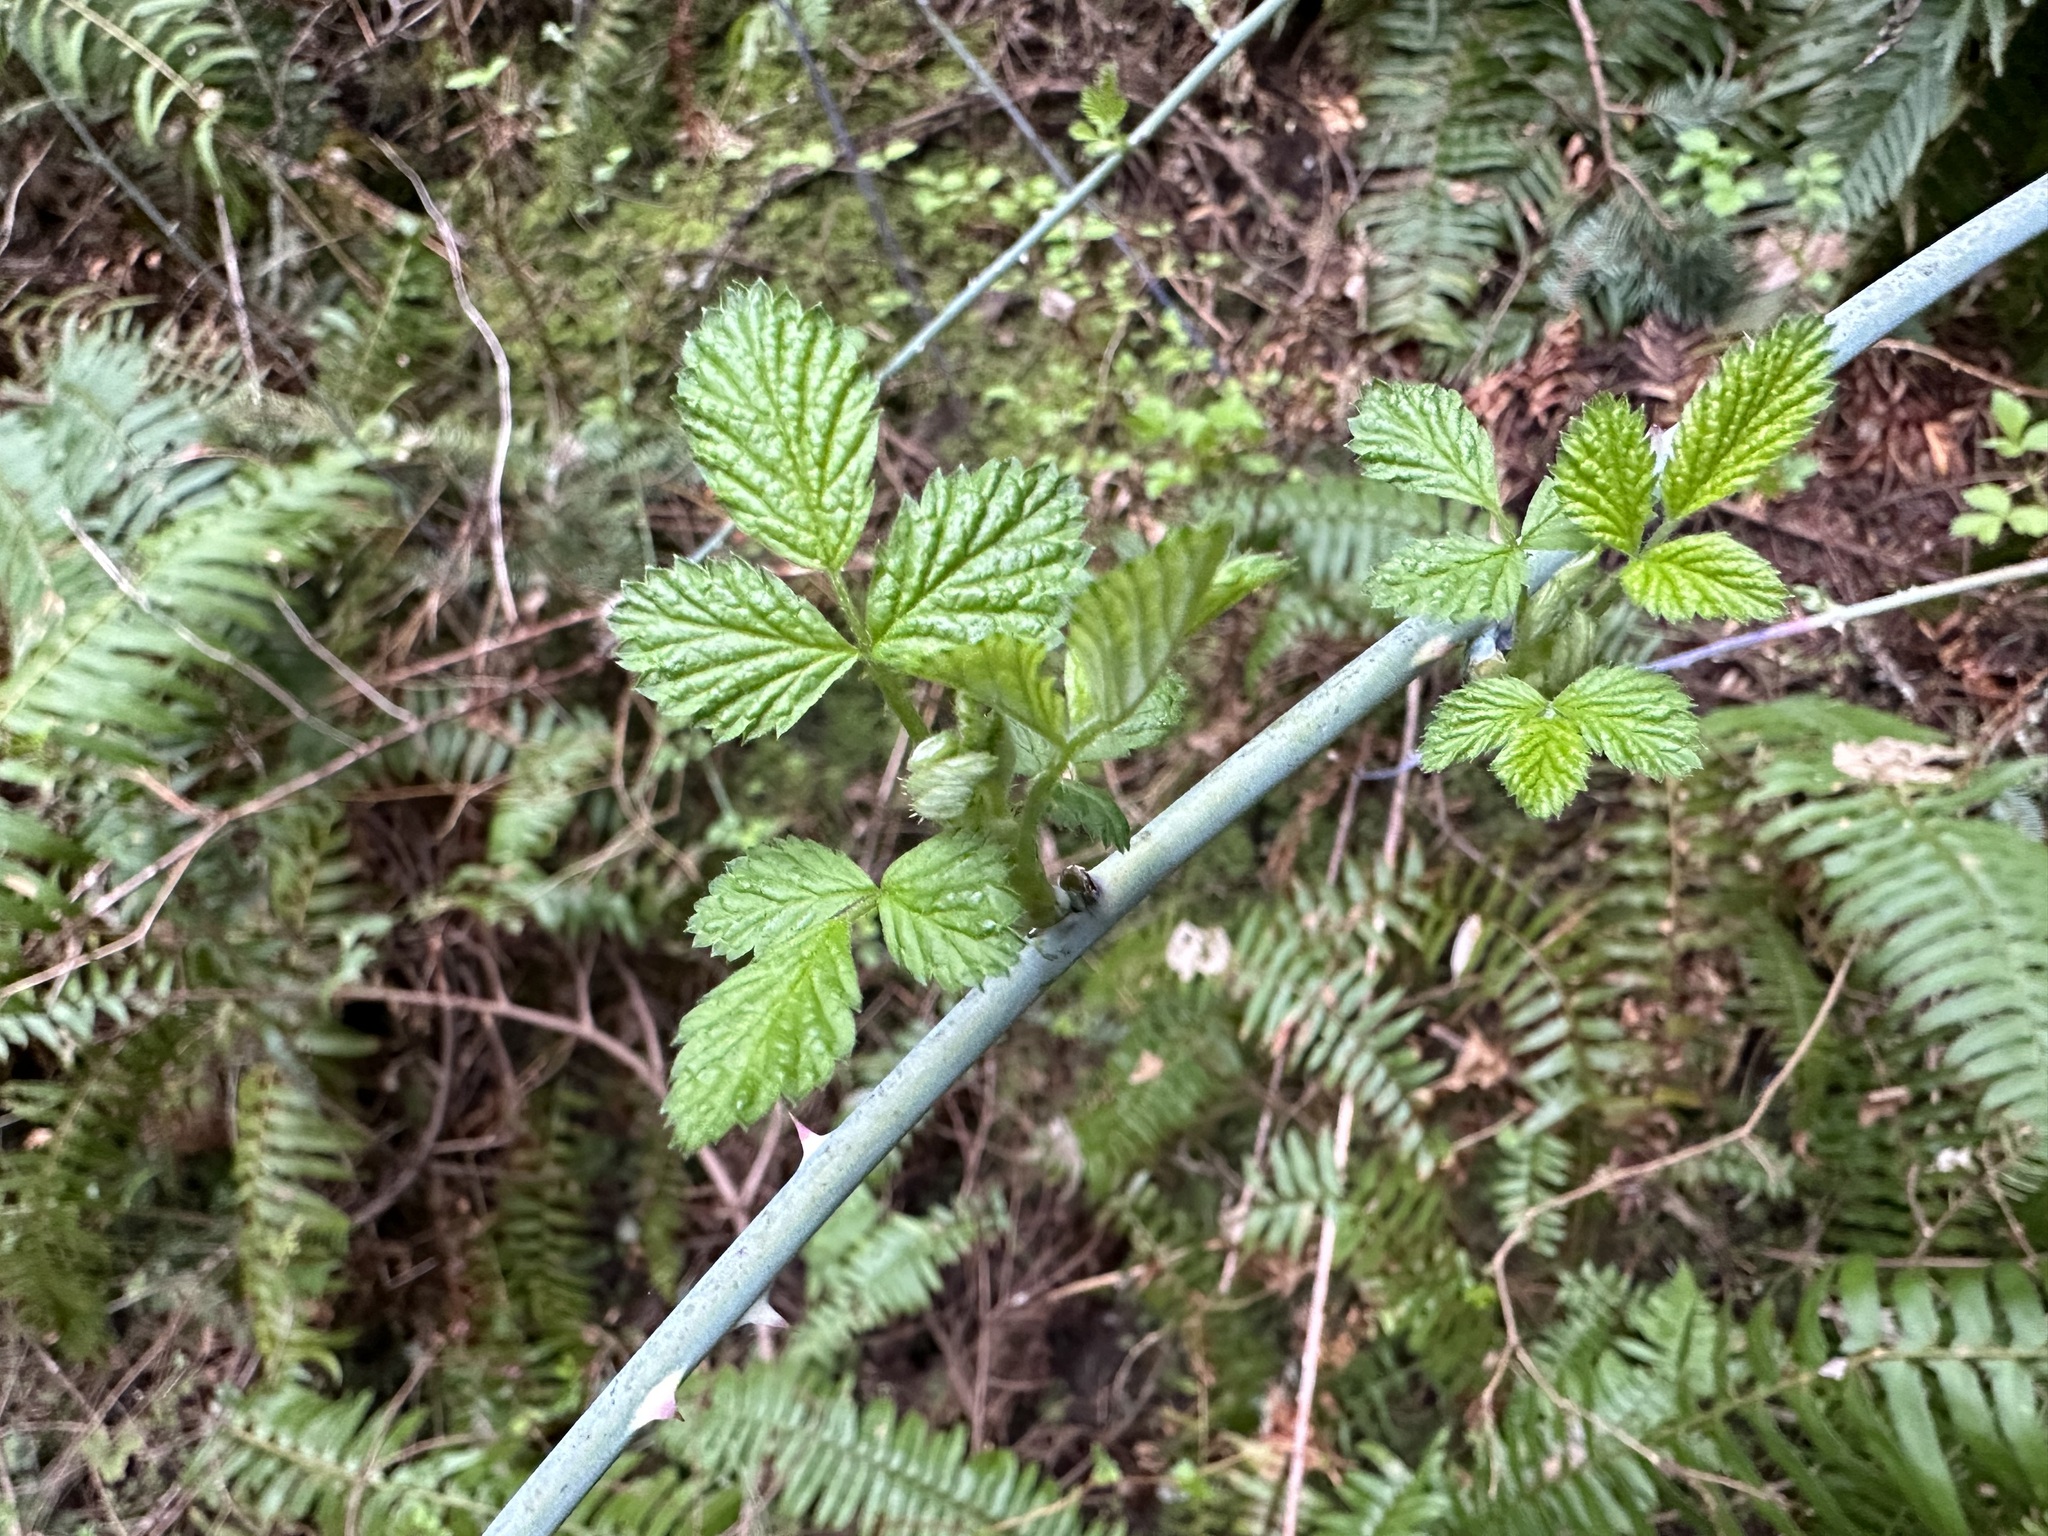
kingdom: Plantae
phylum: Tracheophyta
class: Magnoliopsida
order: Rosales
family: Rosaceae
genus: Rubus
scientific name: Rubus leucodermis
